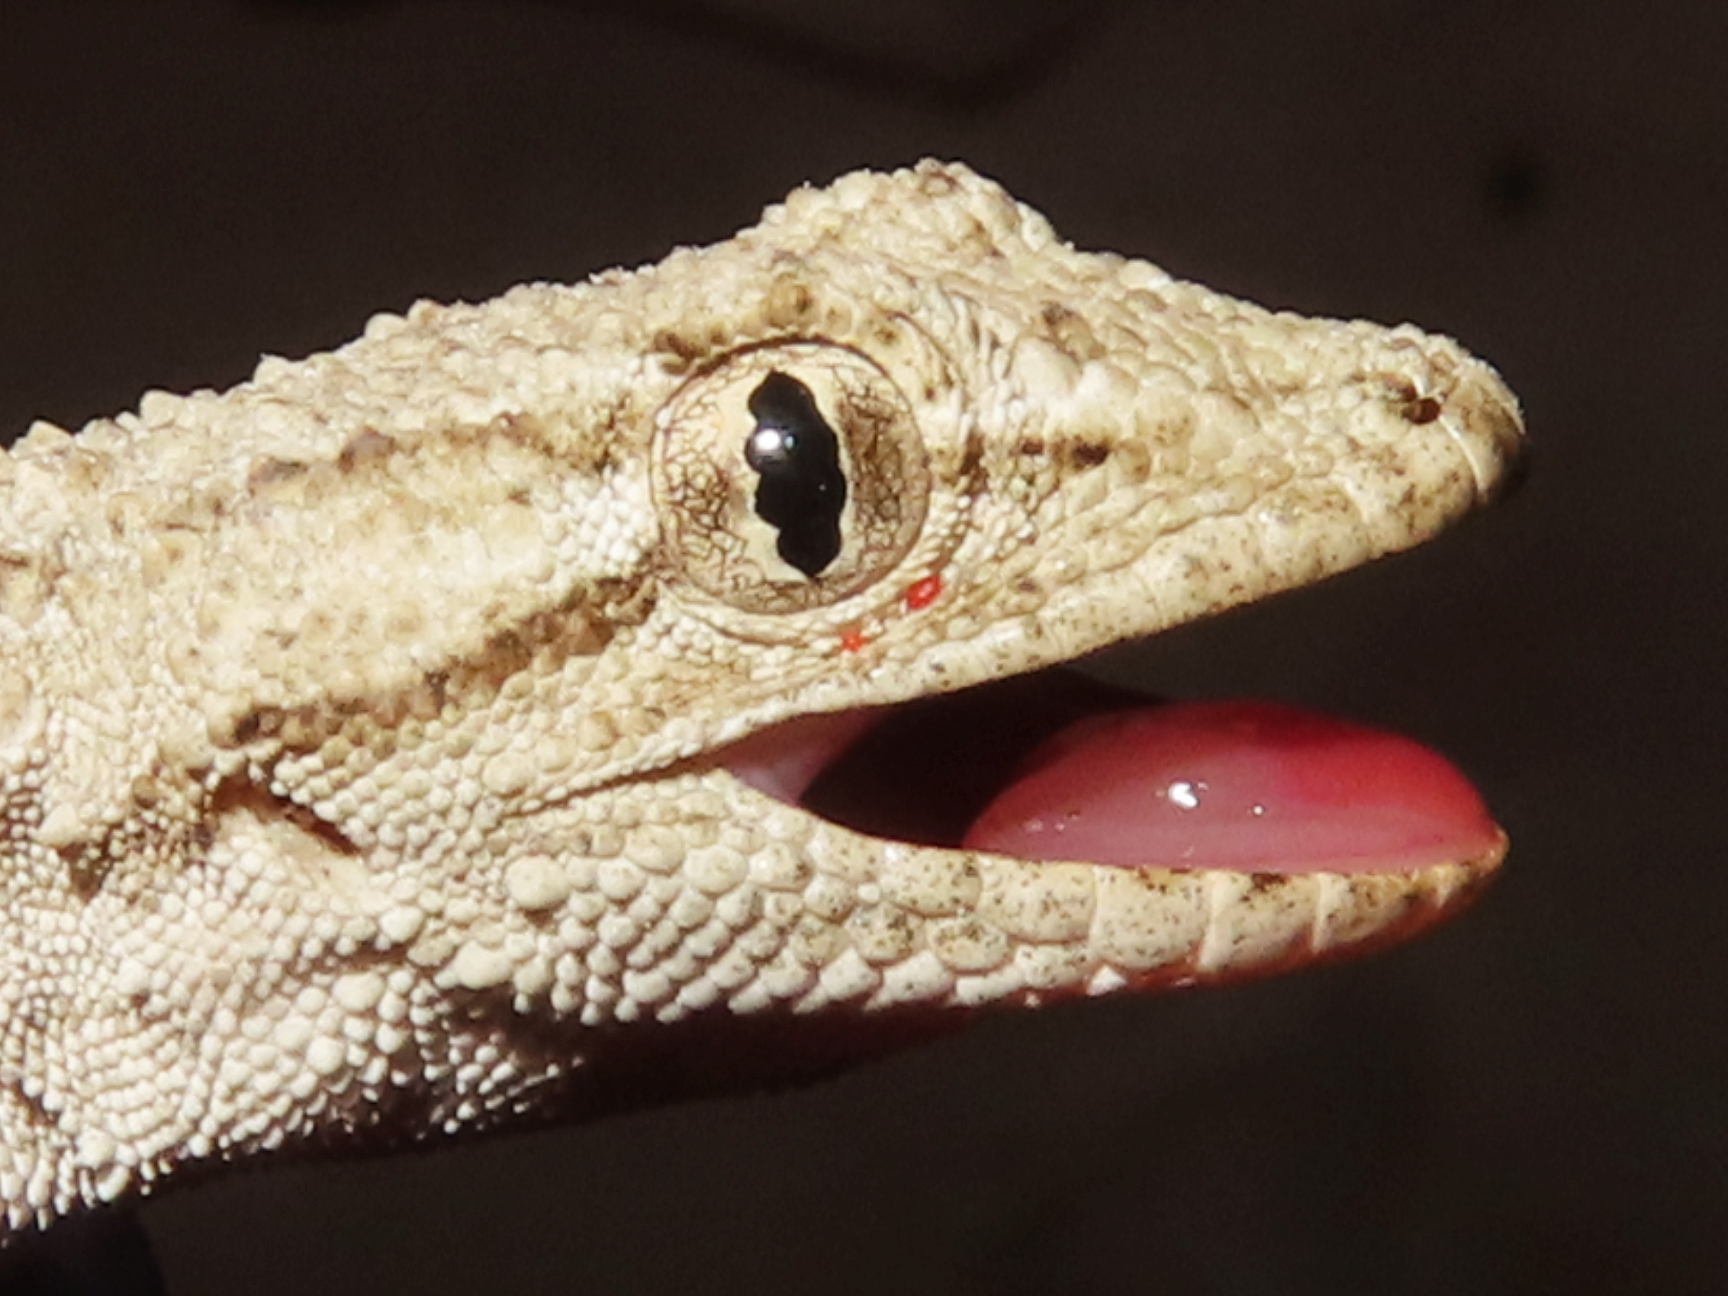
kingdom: Animalia
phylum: Chordata
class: Squamata
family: Gekkonidae
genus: Mediodactylus
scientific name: Mediodactylus russowii
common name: Grey thin-toed gecko
